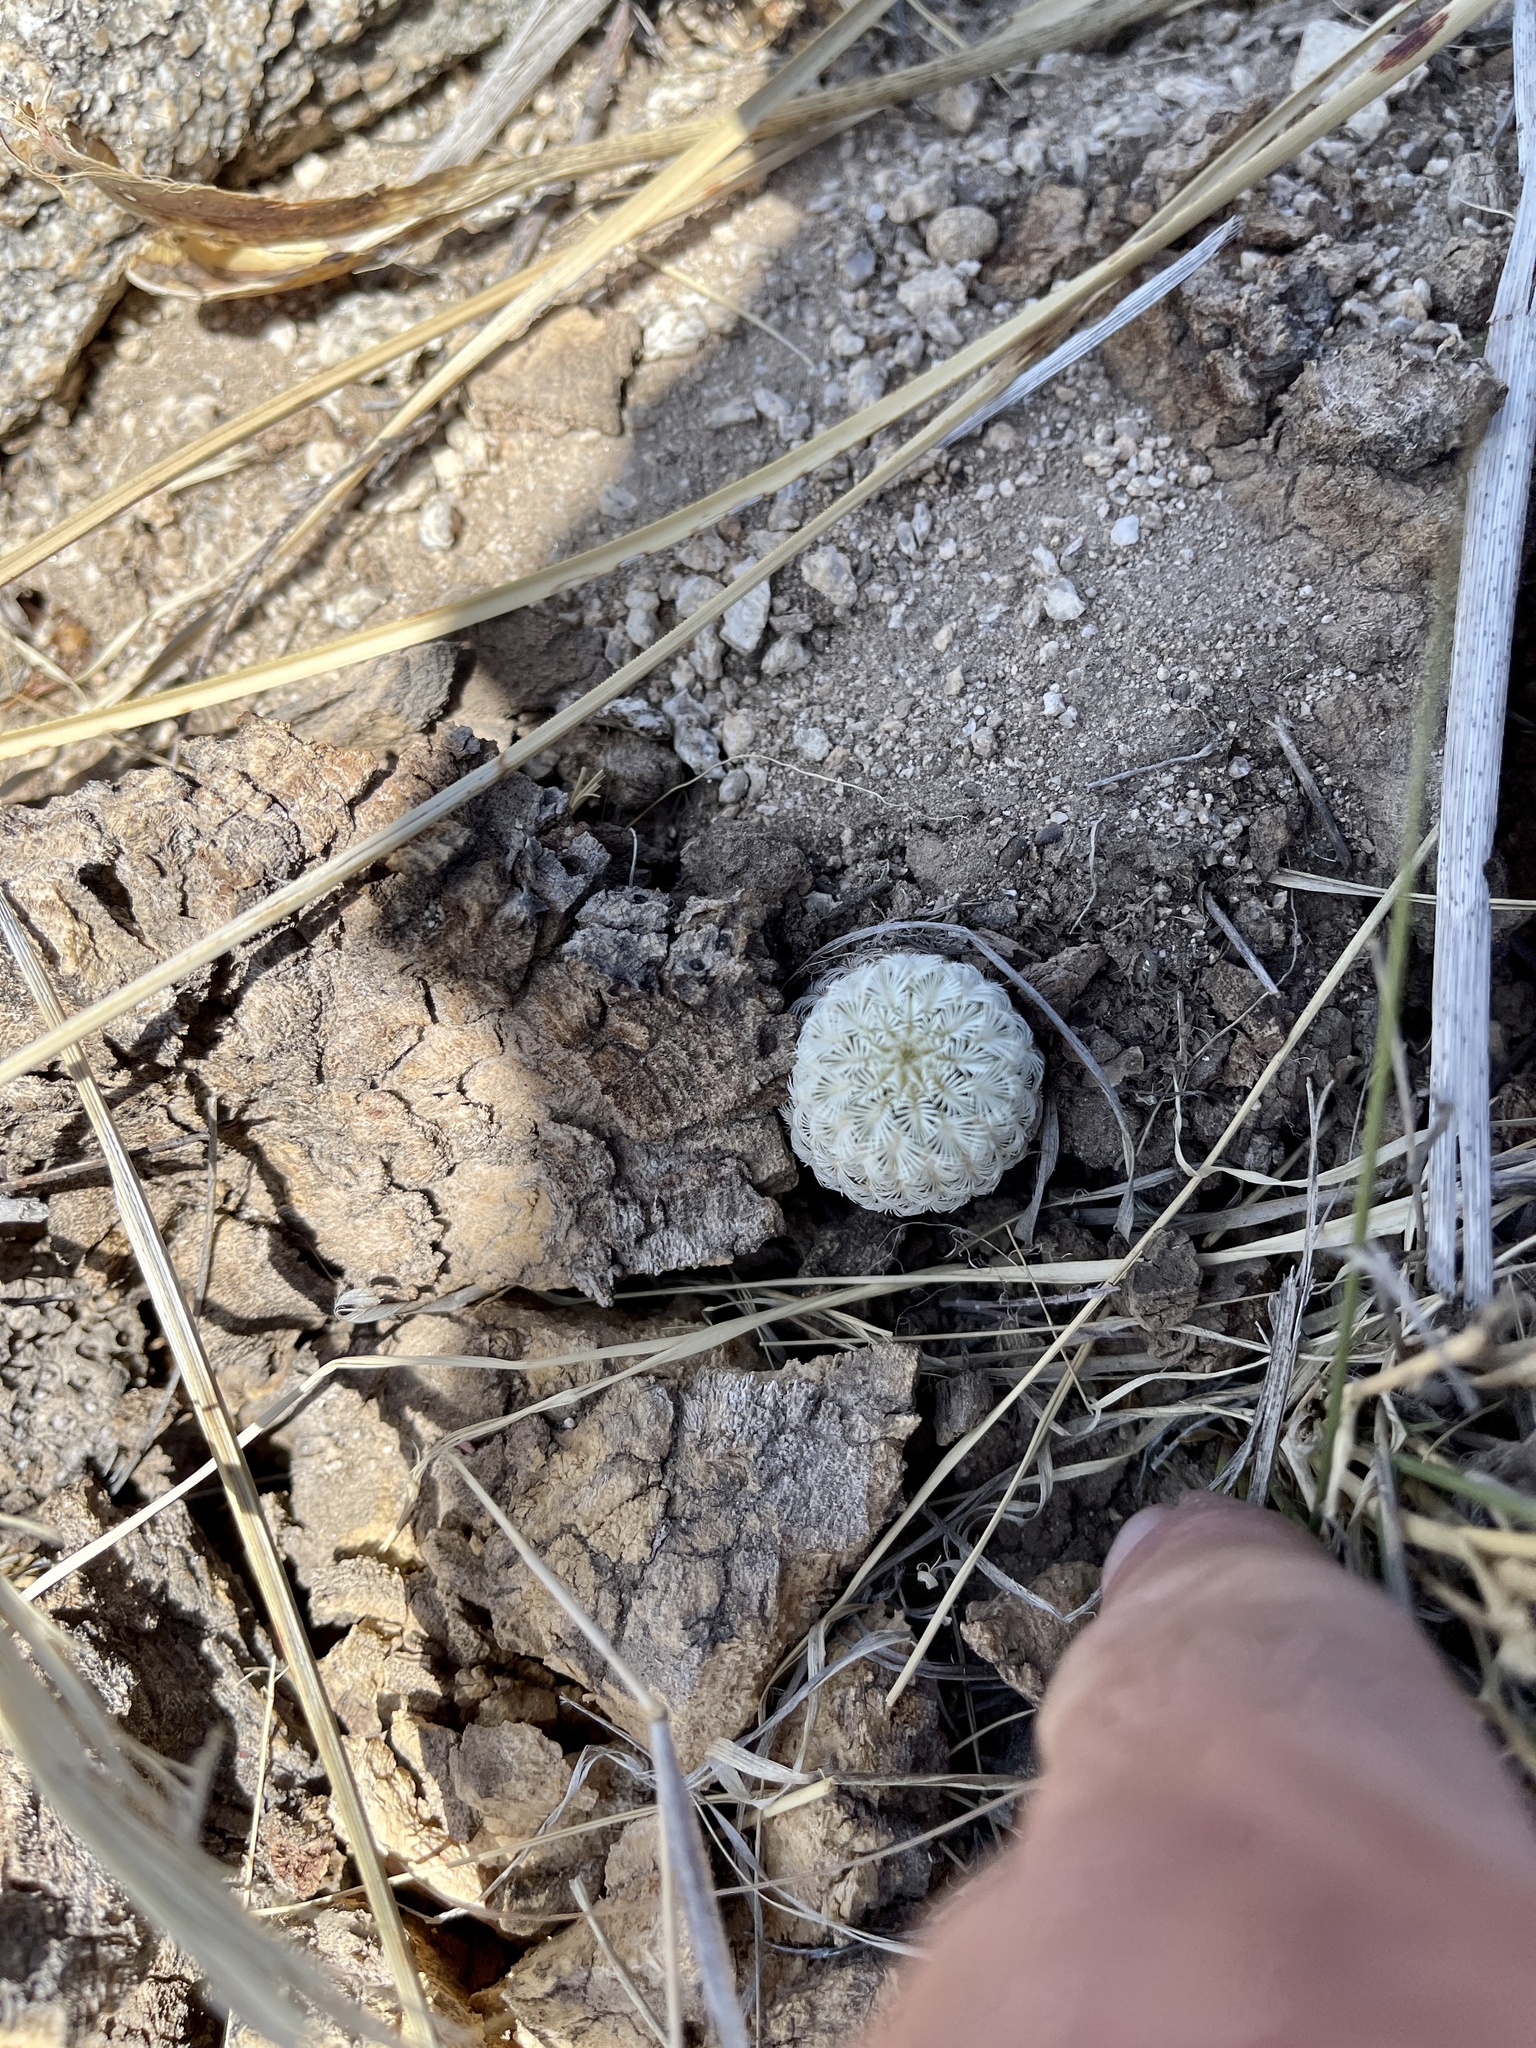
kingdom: Plantae
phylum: Tracheophyta
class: Magnoliopsida
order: Caryophyllales
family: Cactaceae
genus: Echinocereus
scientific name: Echinocereus rigidissimus
